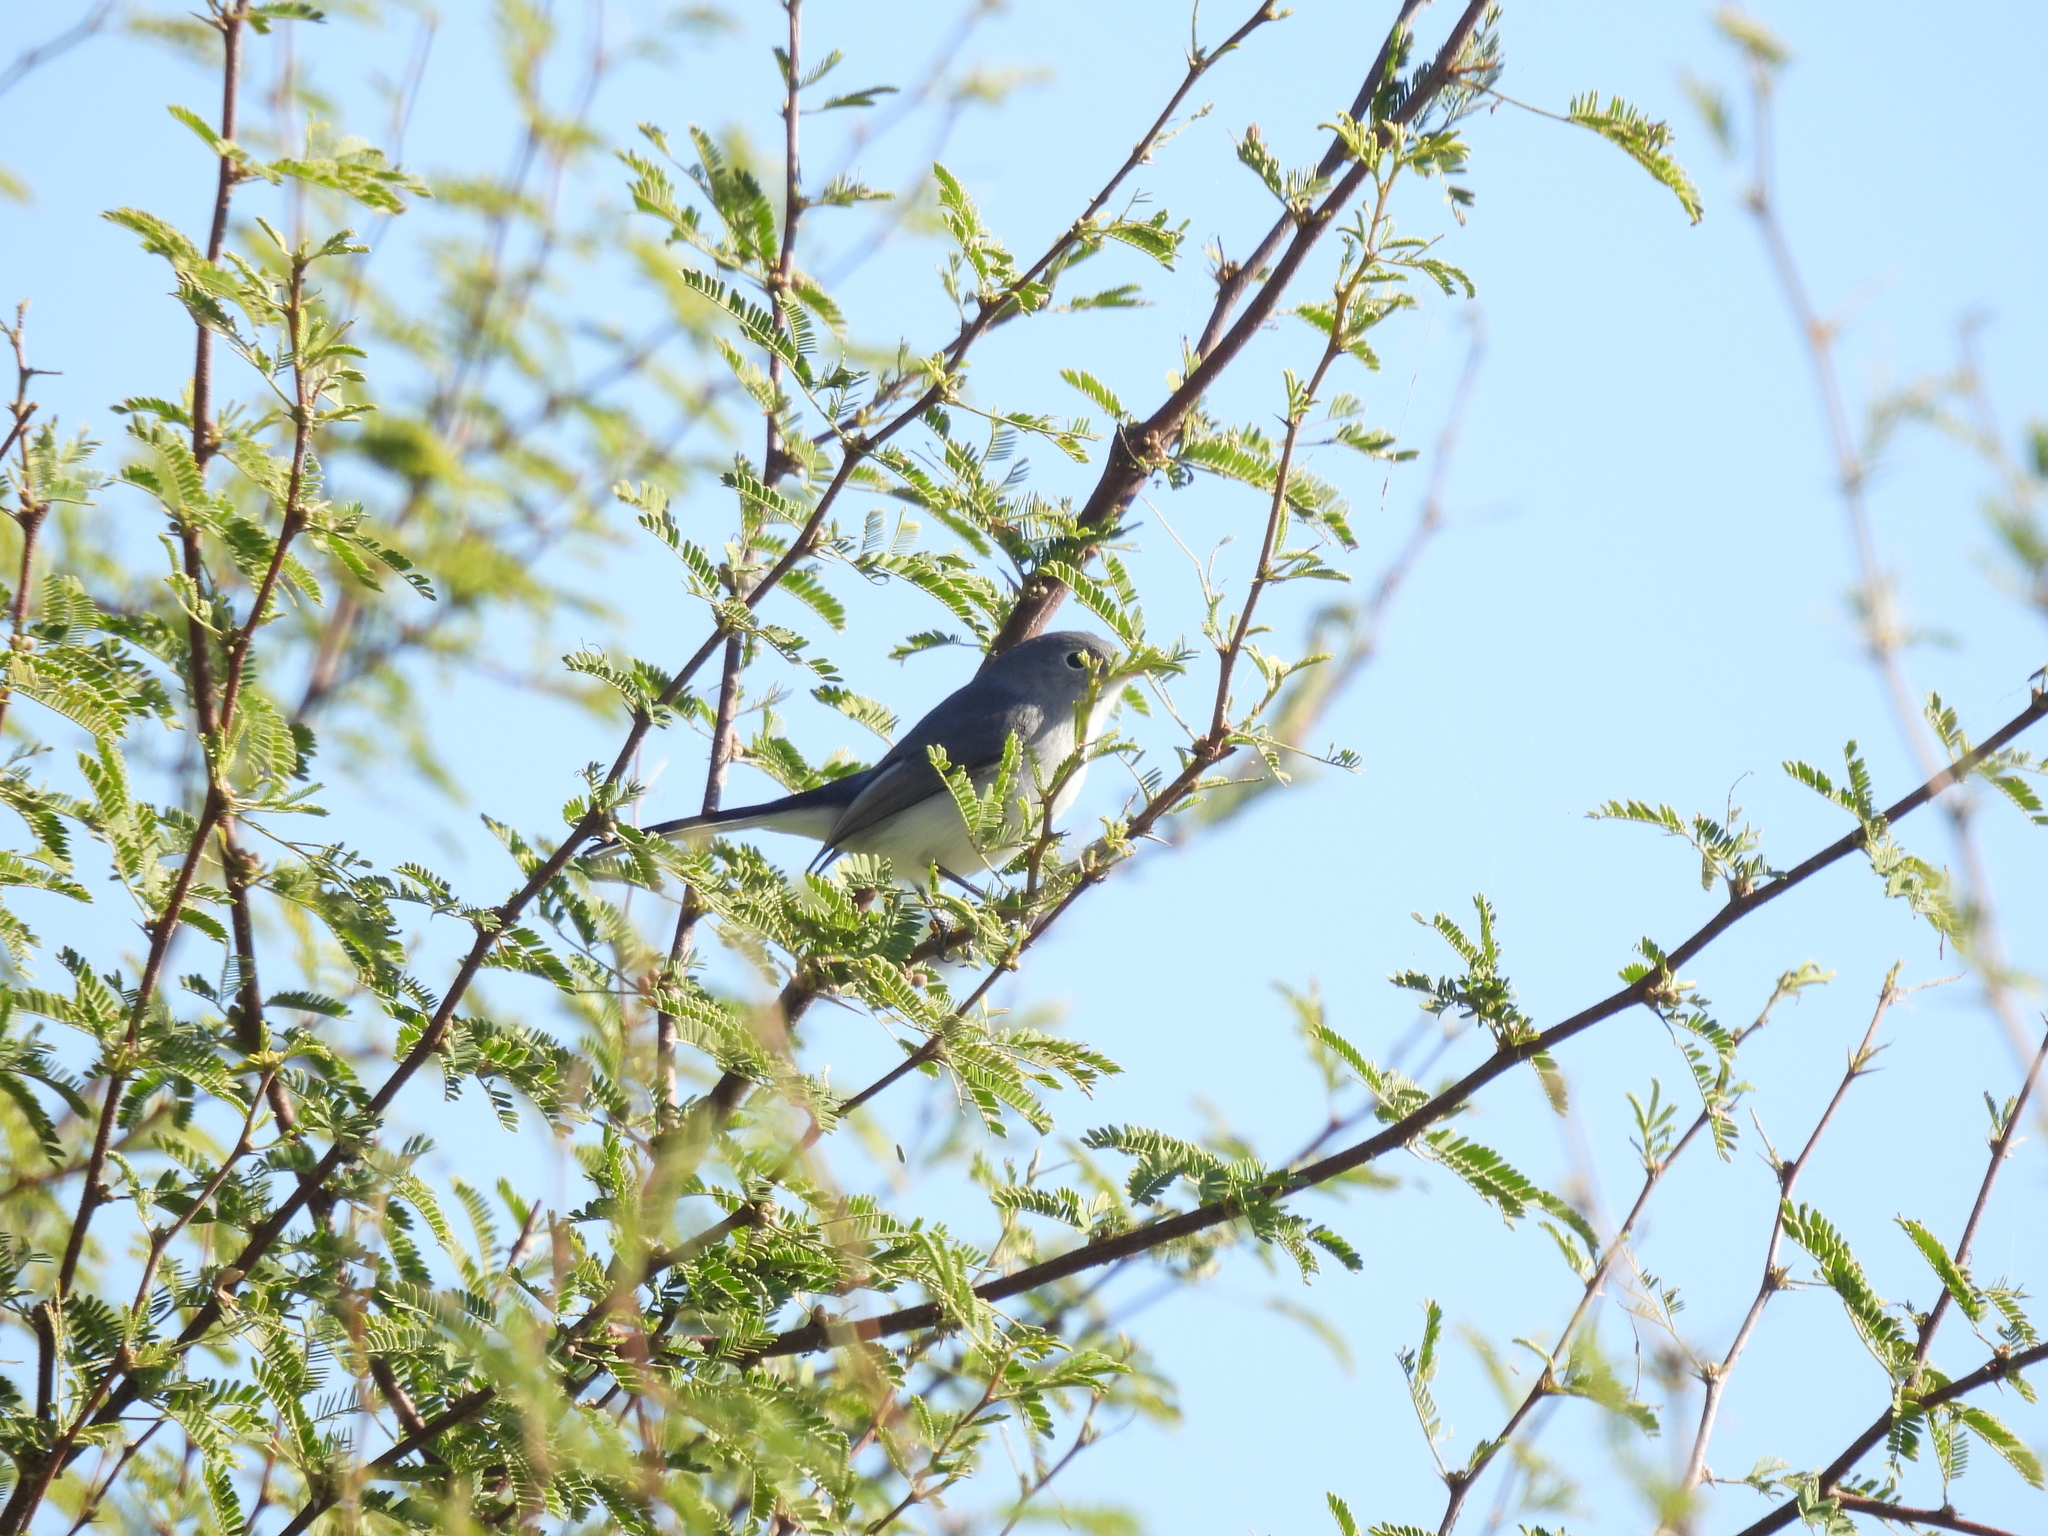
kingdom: Animalia
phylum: Chordata
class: Aves
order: Passeriformes
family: Polioptilidae
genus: Polioptila
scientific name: Polioptila caerulea
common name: Blue-gray gnatcatcher
